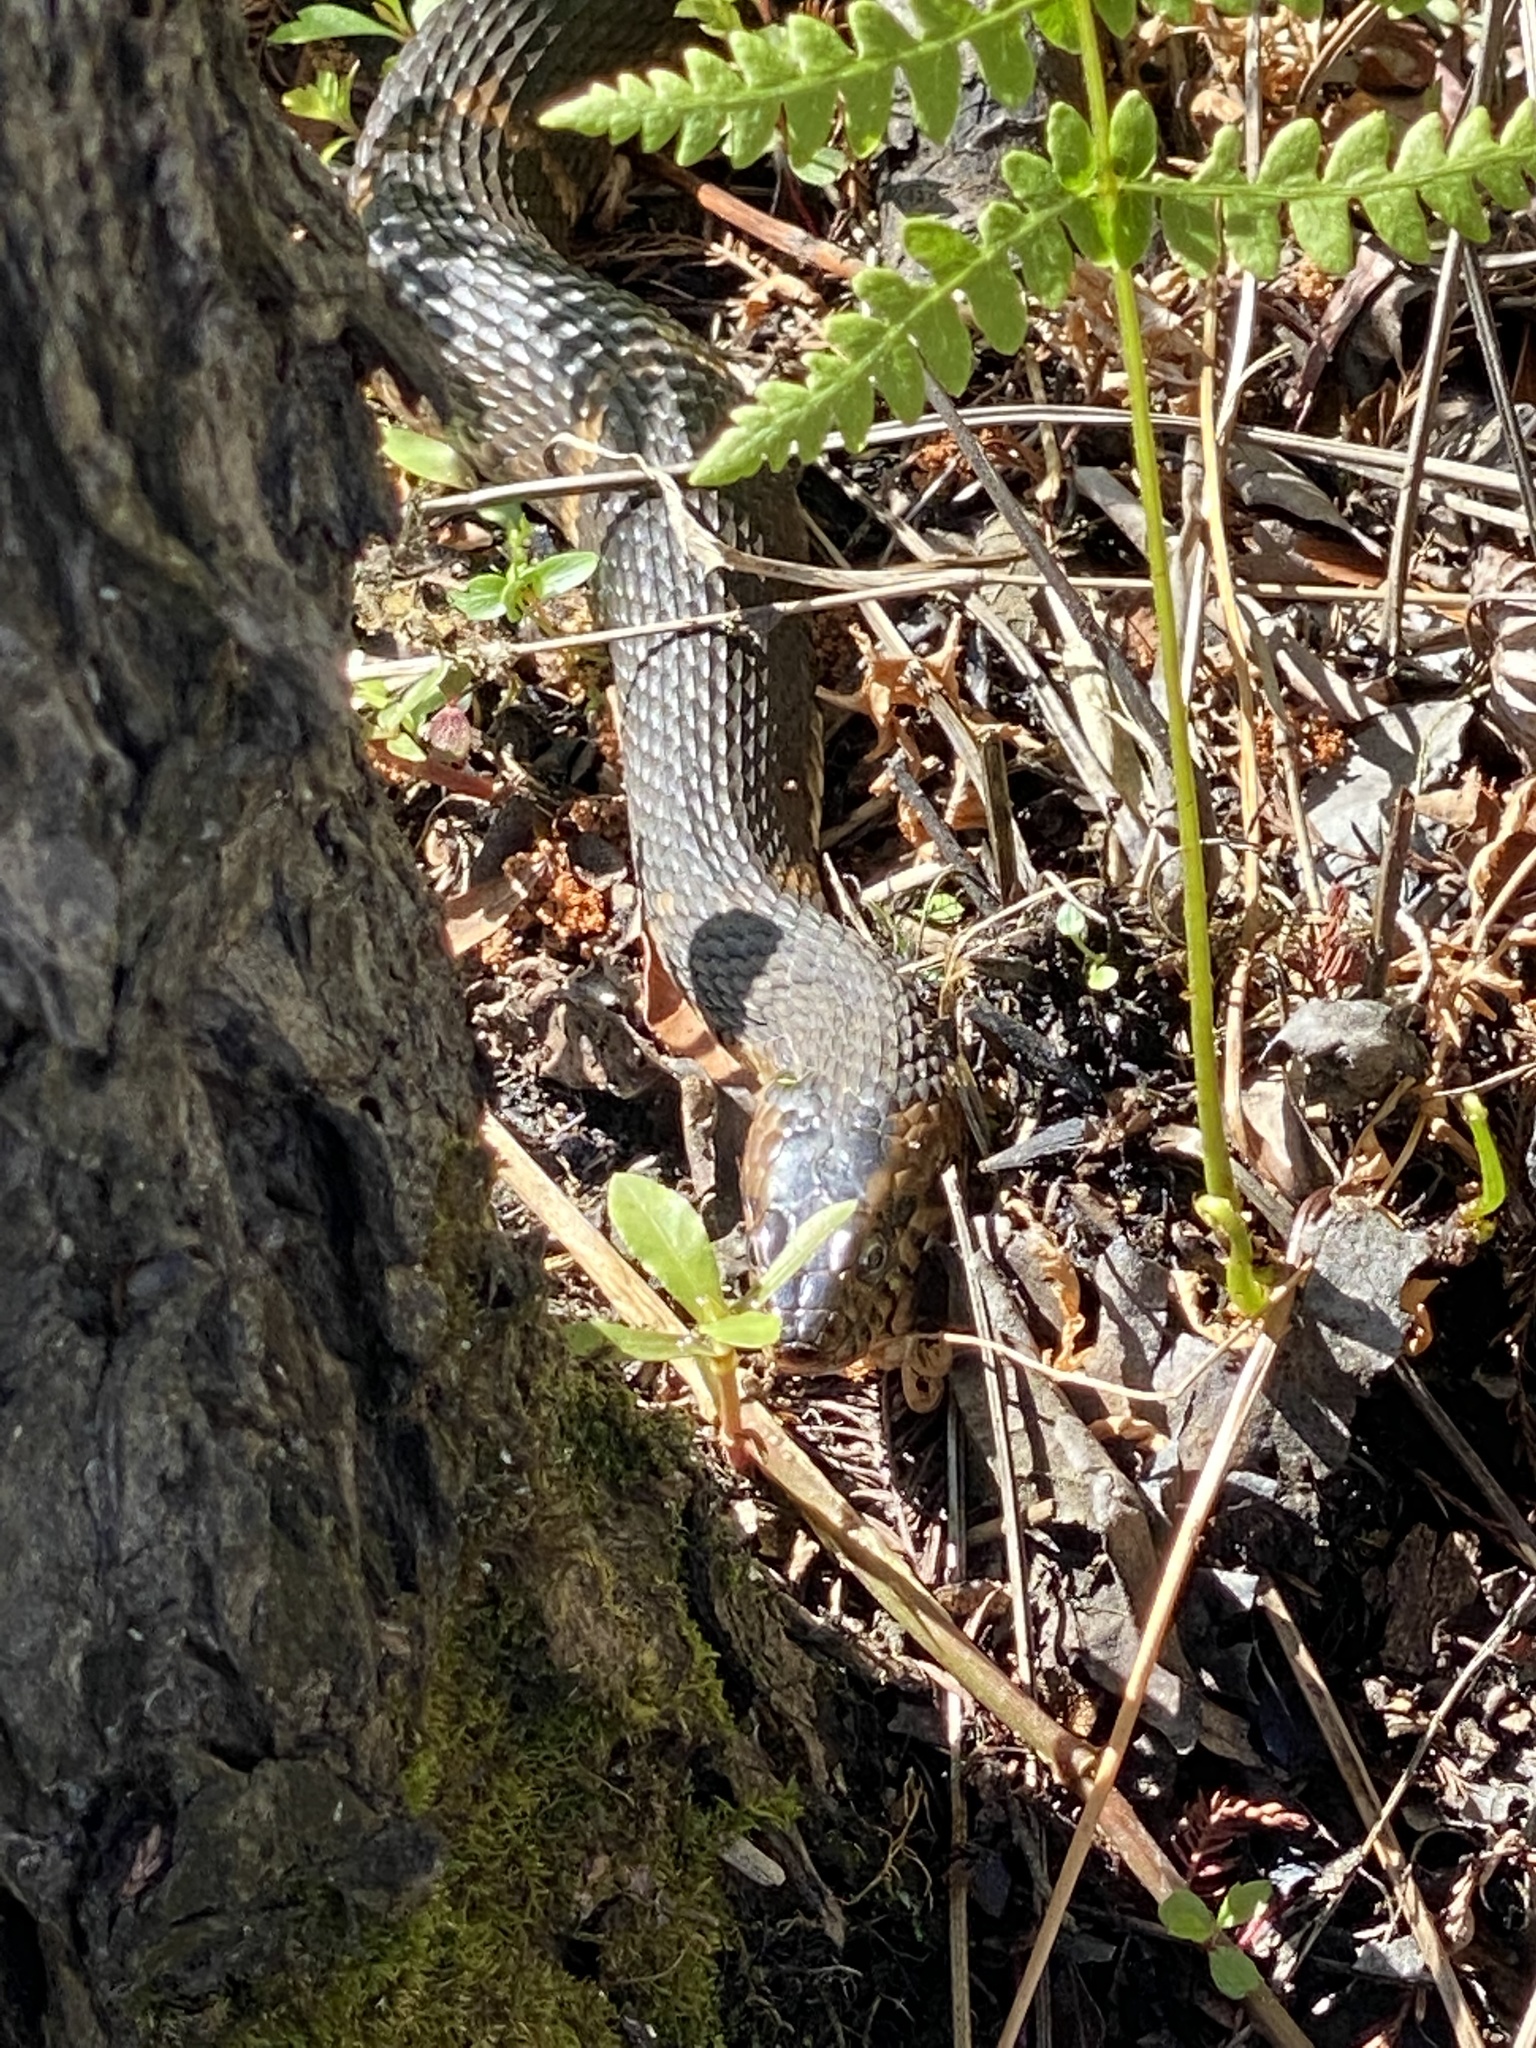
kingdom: Animalia
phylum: Chordata
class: Squamata
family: Colubridae
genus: Nerodia
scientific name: Nerodia fasciata
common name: Southern water snake
